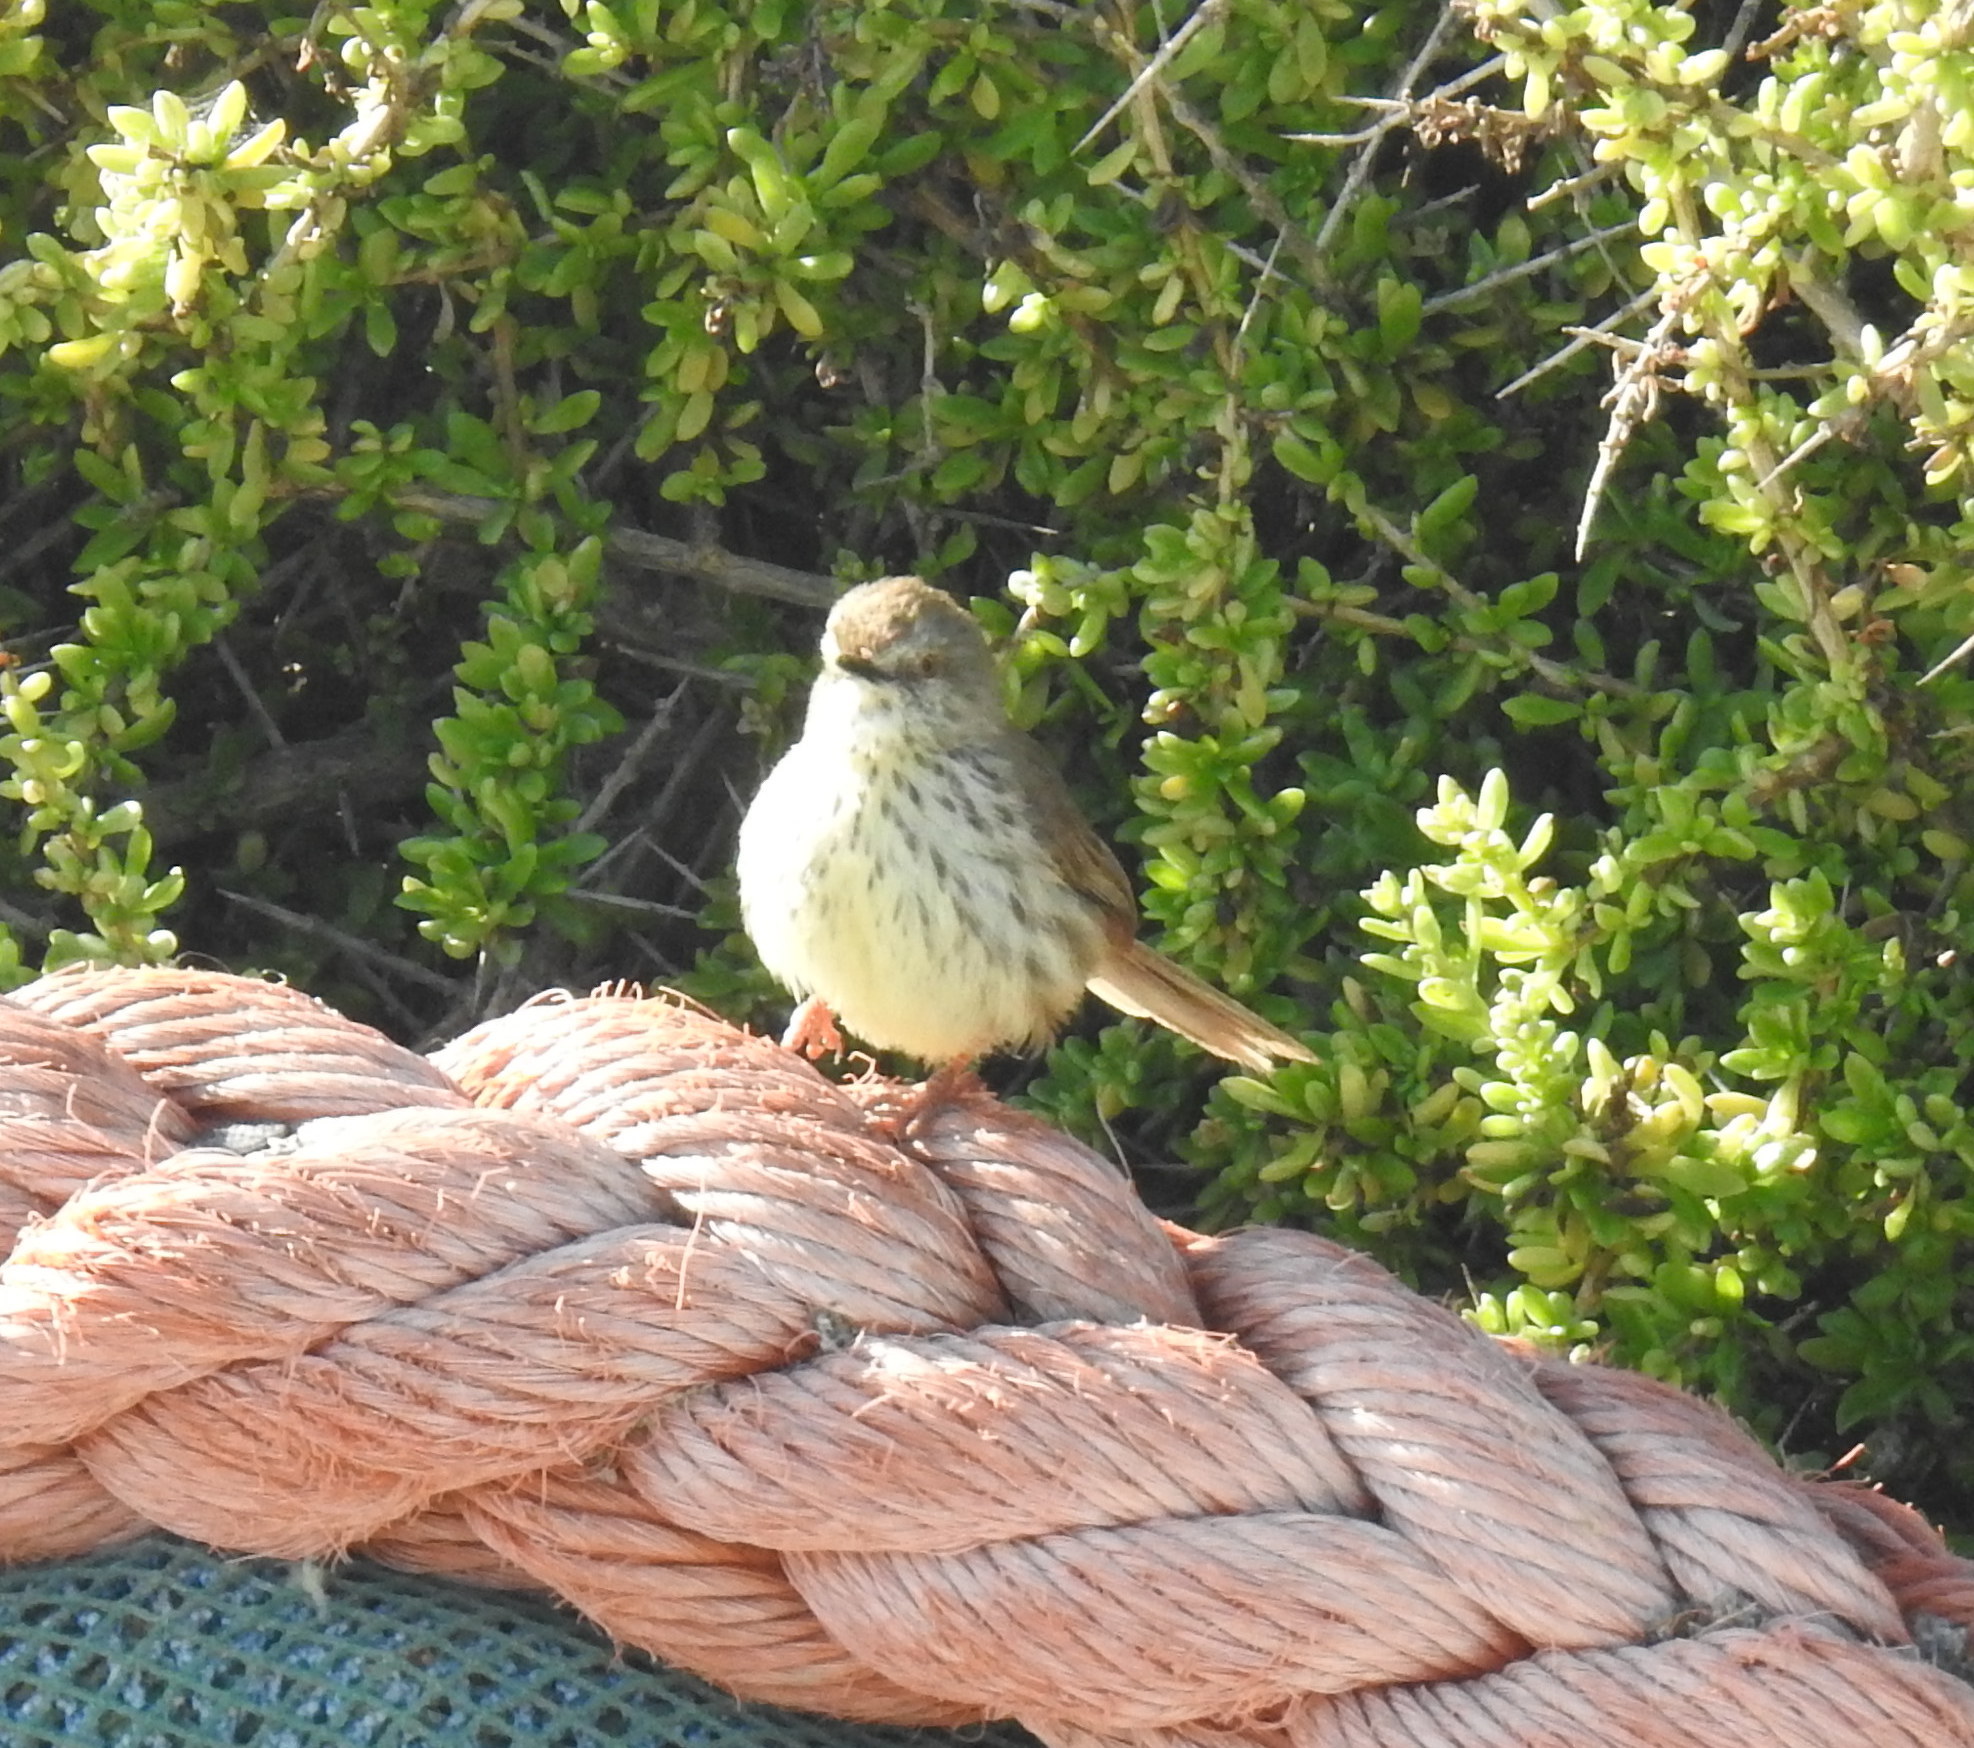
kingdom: Animalia
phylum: Chordata
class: Aves
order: Passeriformes
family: Cisticolidae
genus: Prinia
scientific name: Prinia maculosa
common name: Karoo prinia
